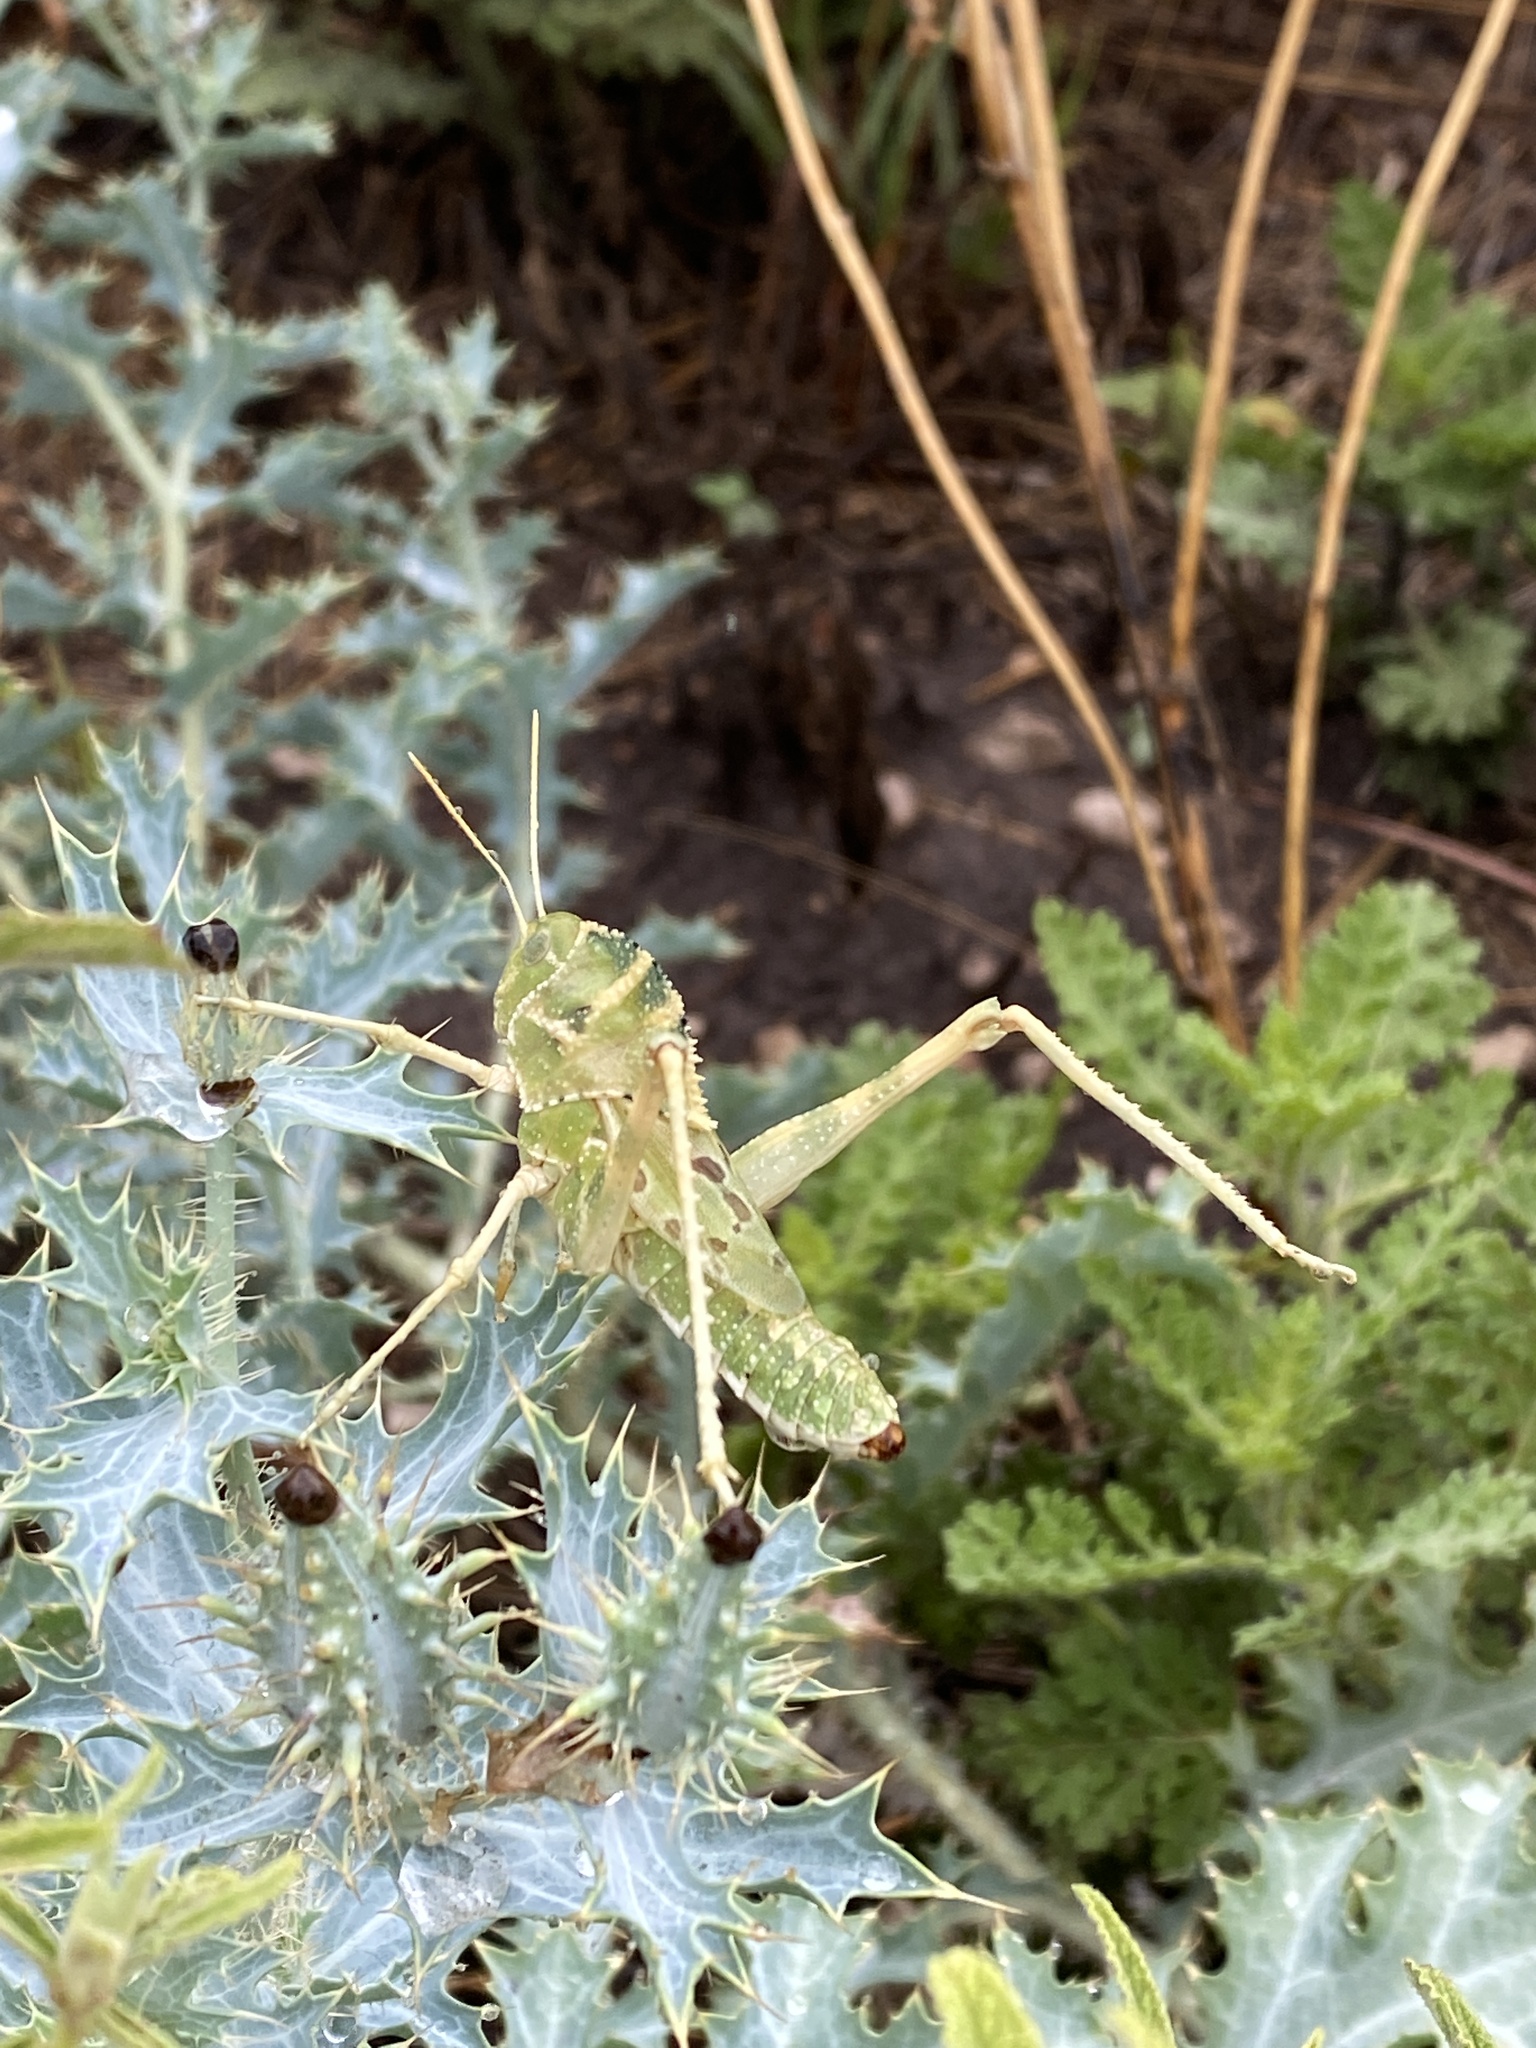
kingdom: Animalia
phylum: Arthropoda
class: Insecta
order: Orthoptera
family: Acrididae
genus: Tropidolophus
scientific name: Tropidolophus formosus
